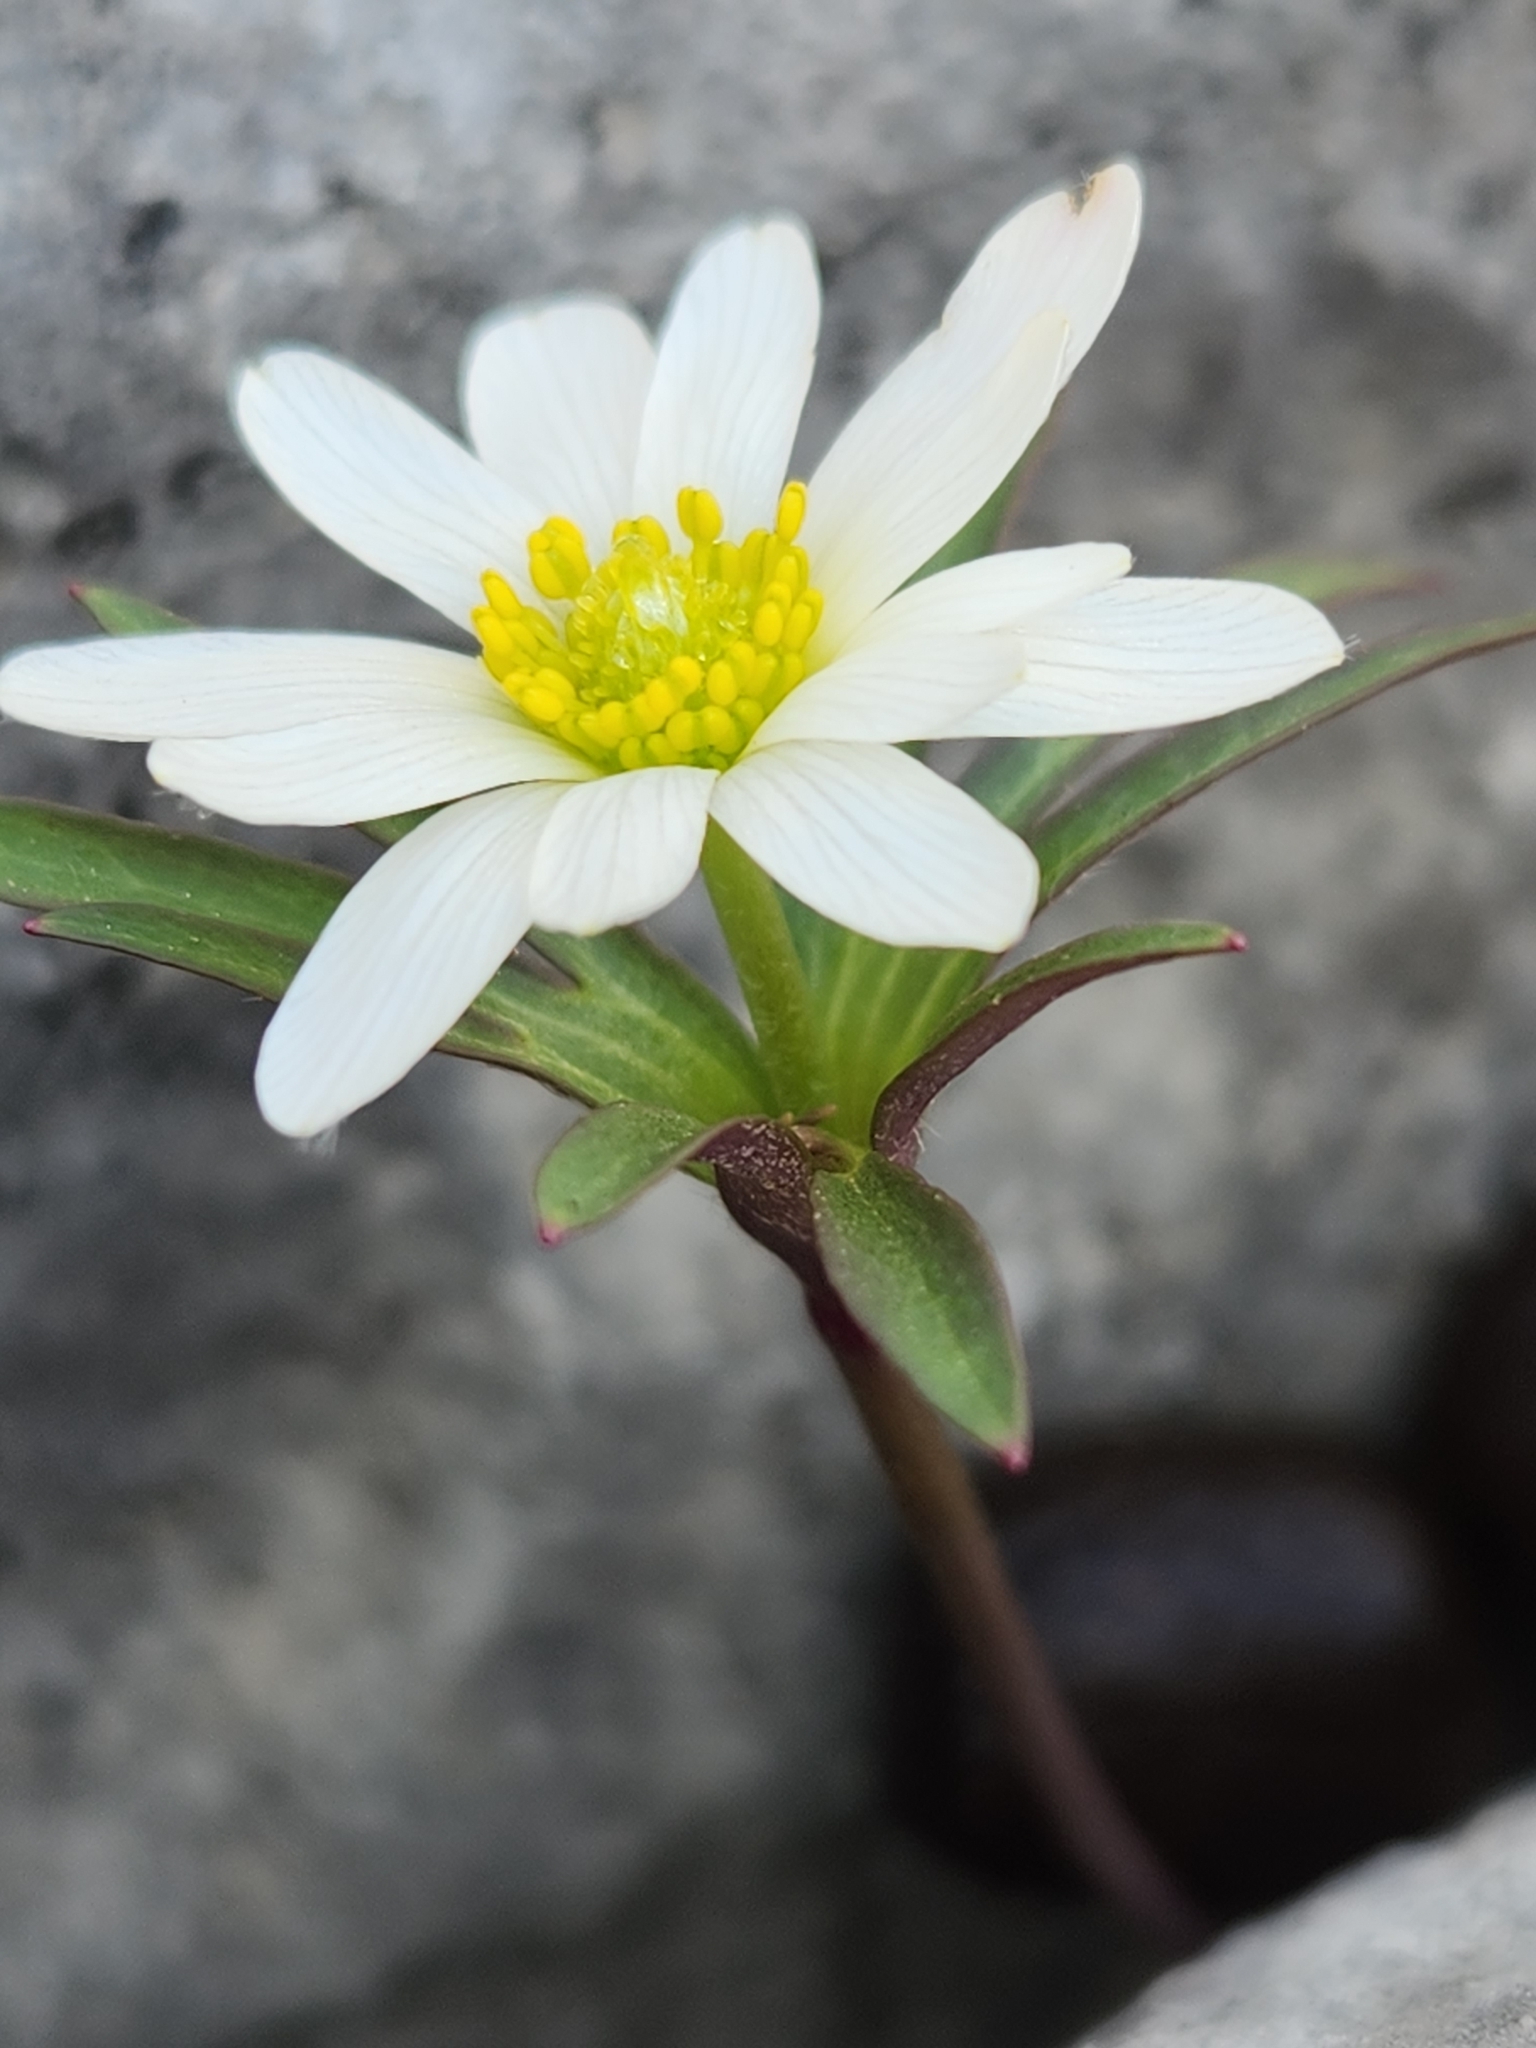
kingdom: Plantae
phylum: Tracheophyta
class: Magnoliopsida
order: Ranunculales
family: Ranunculaceae
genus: Anemone
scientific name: Anemone edwardsiana
